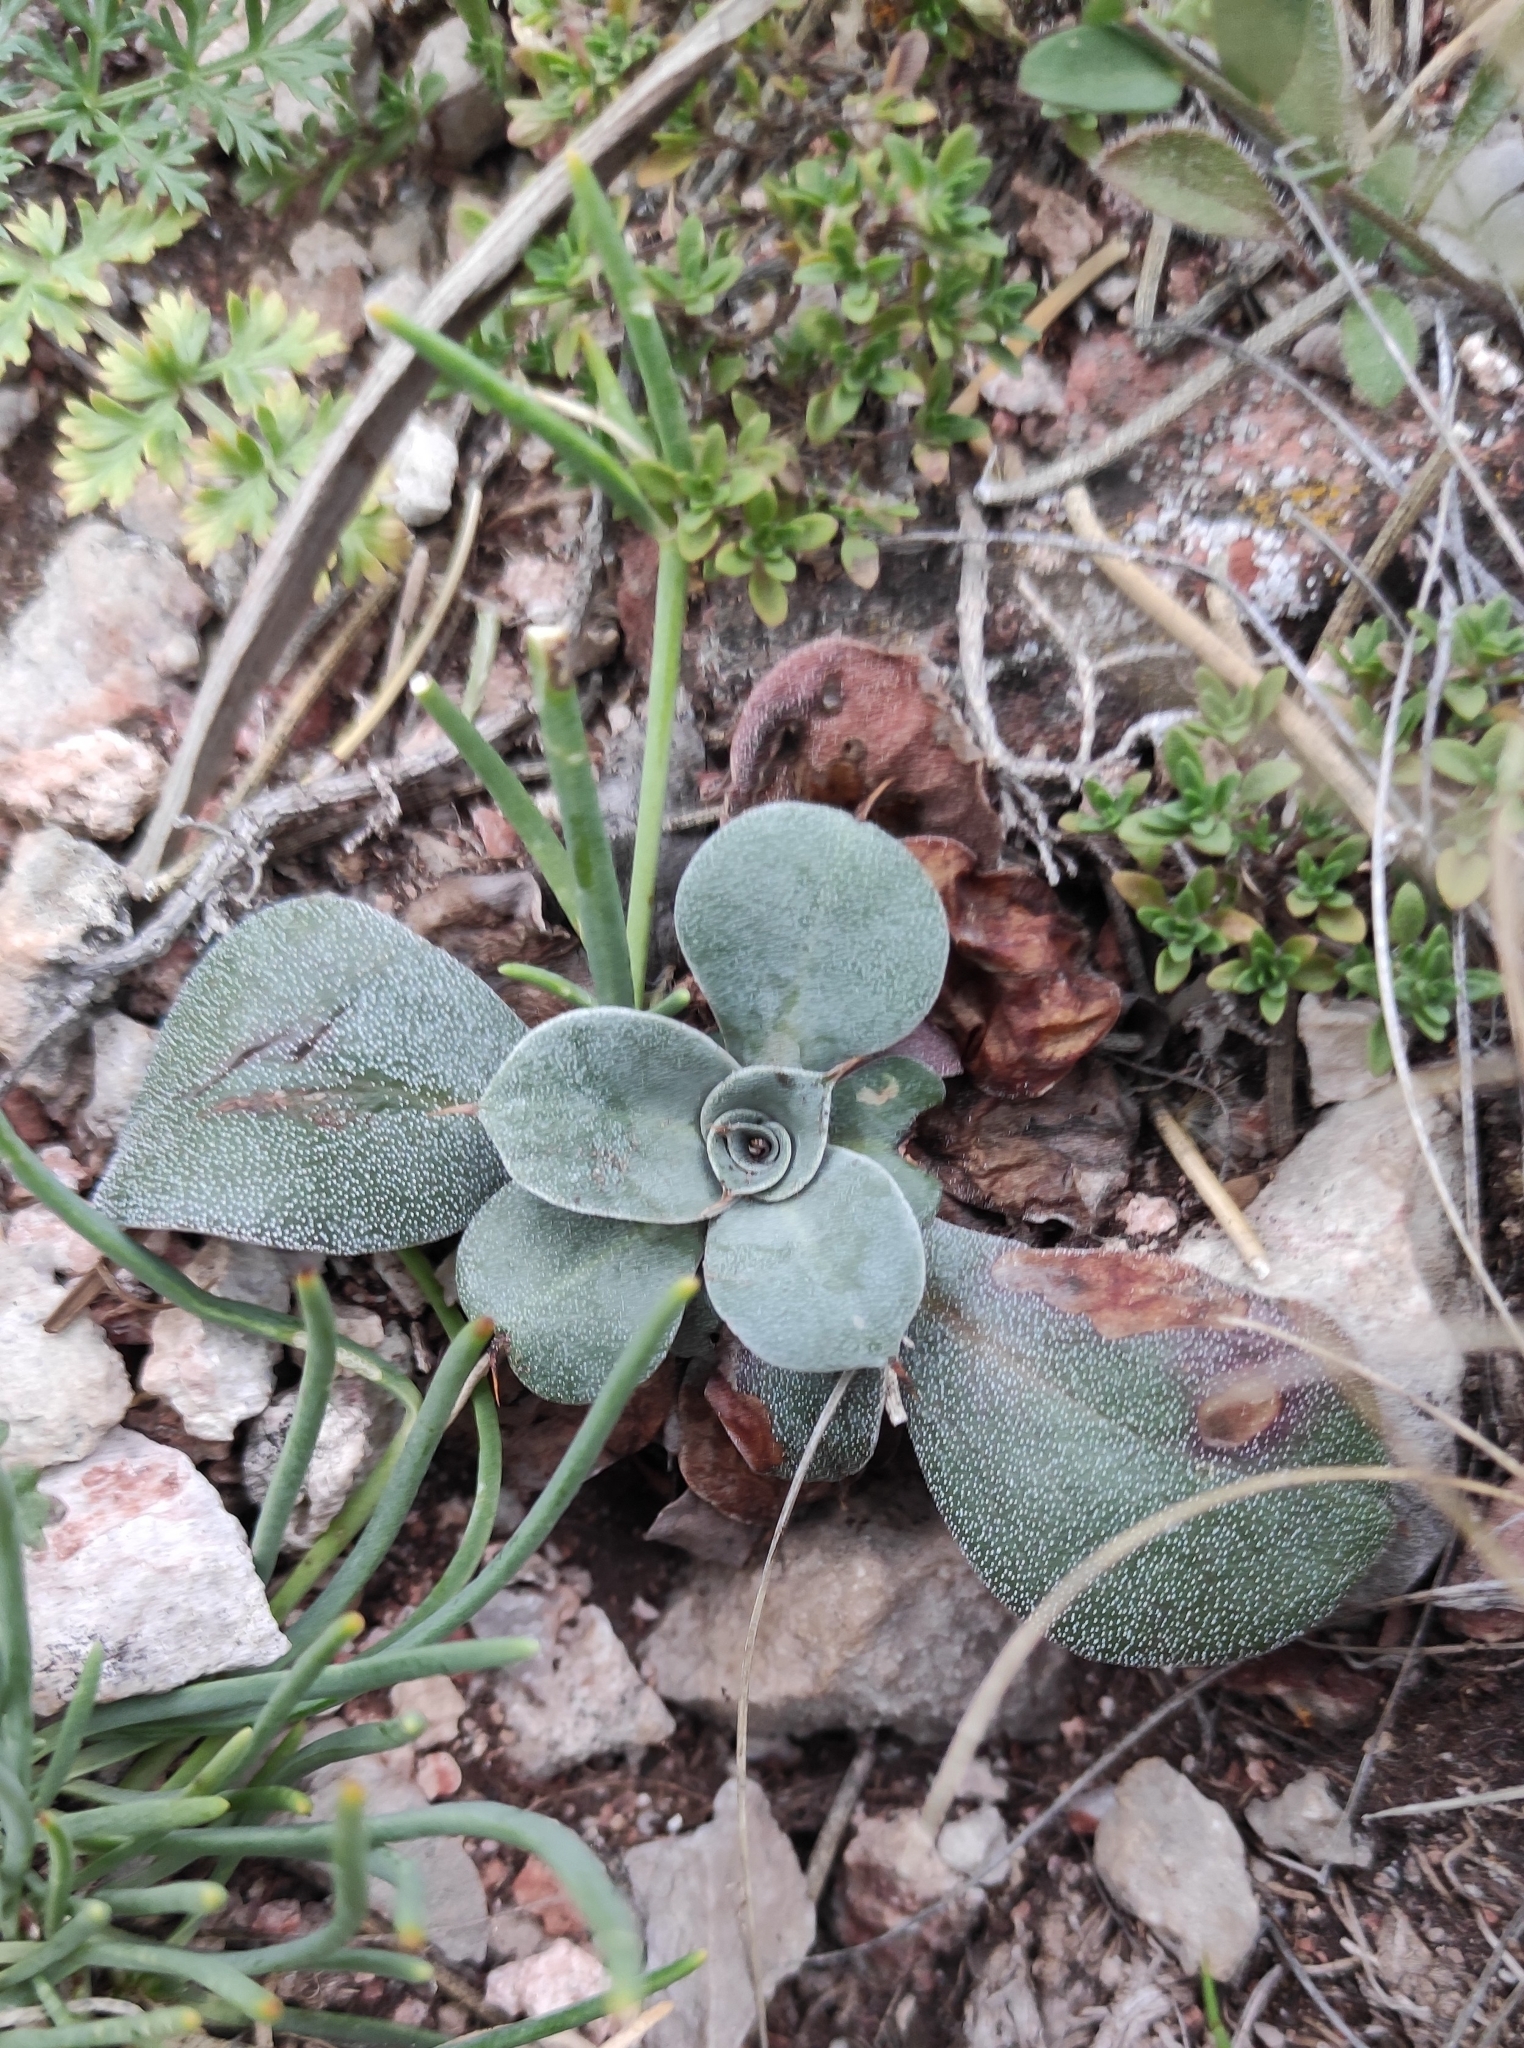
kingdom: Plantae
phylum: Tracheophyta
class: Magnoliopsida
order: Caryophyllales
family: Plumbaginaceae
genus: Goniolimon
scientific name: Goniolimon speciosum
